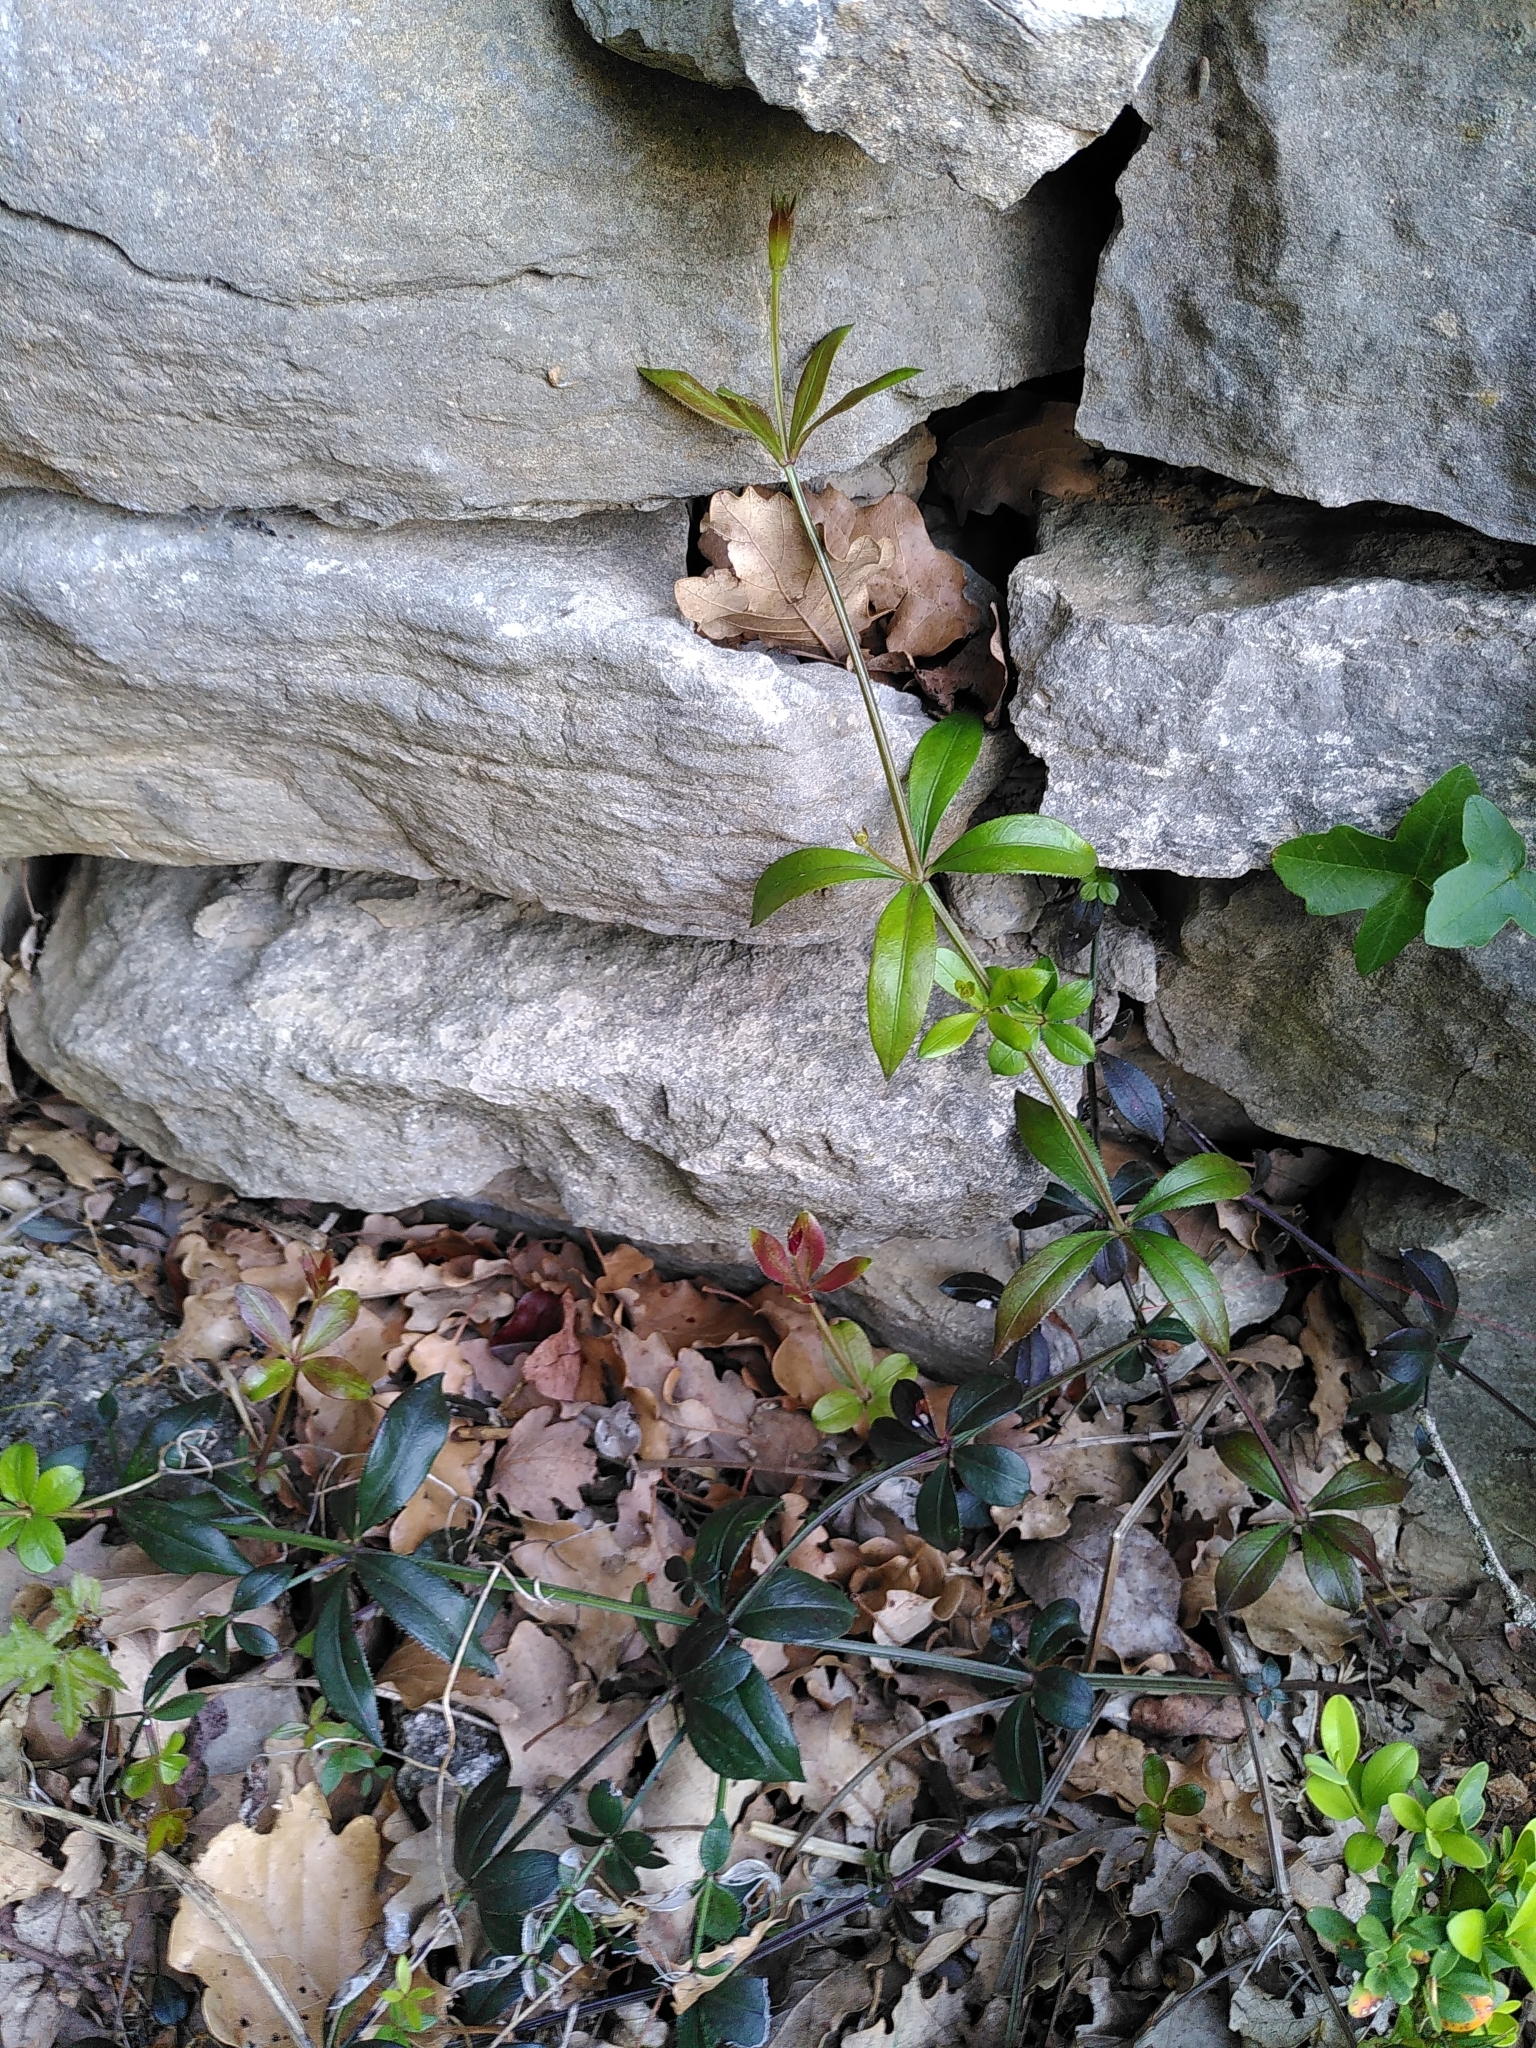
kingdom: Plantae
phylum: Tracheophyta
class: Magnoliopsida
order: Gentianales
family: Rubiaceae
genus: Rubia
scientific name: Rubia peregrina
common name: Wild madder
